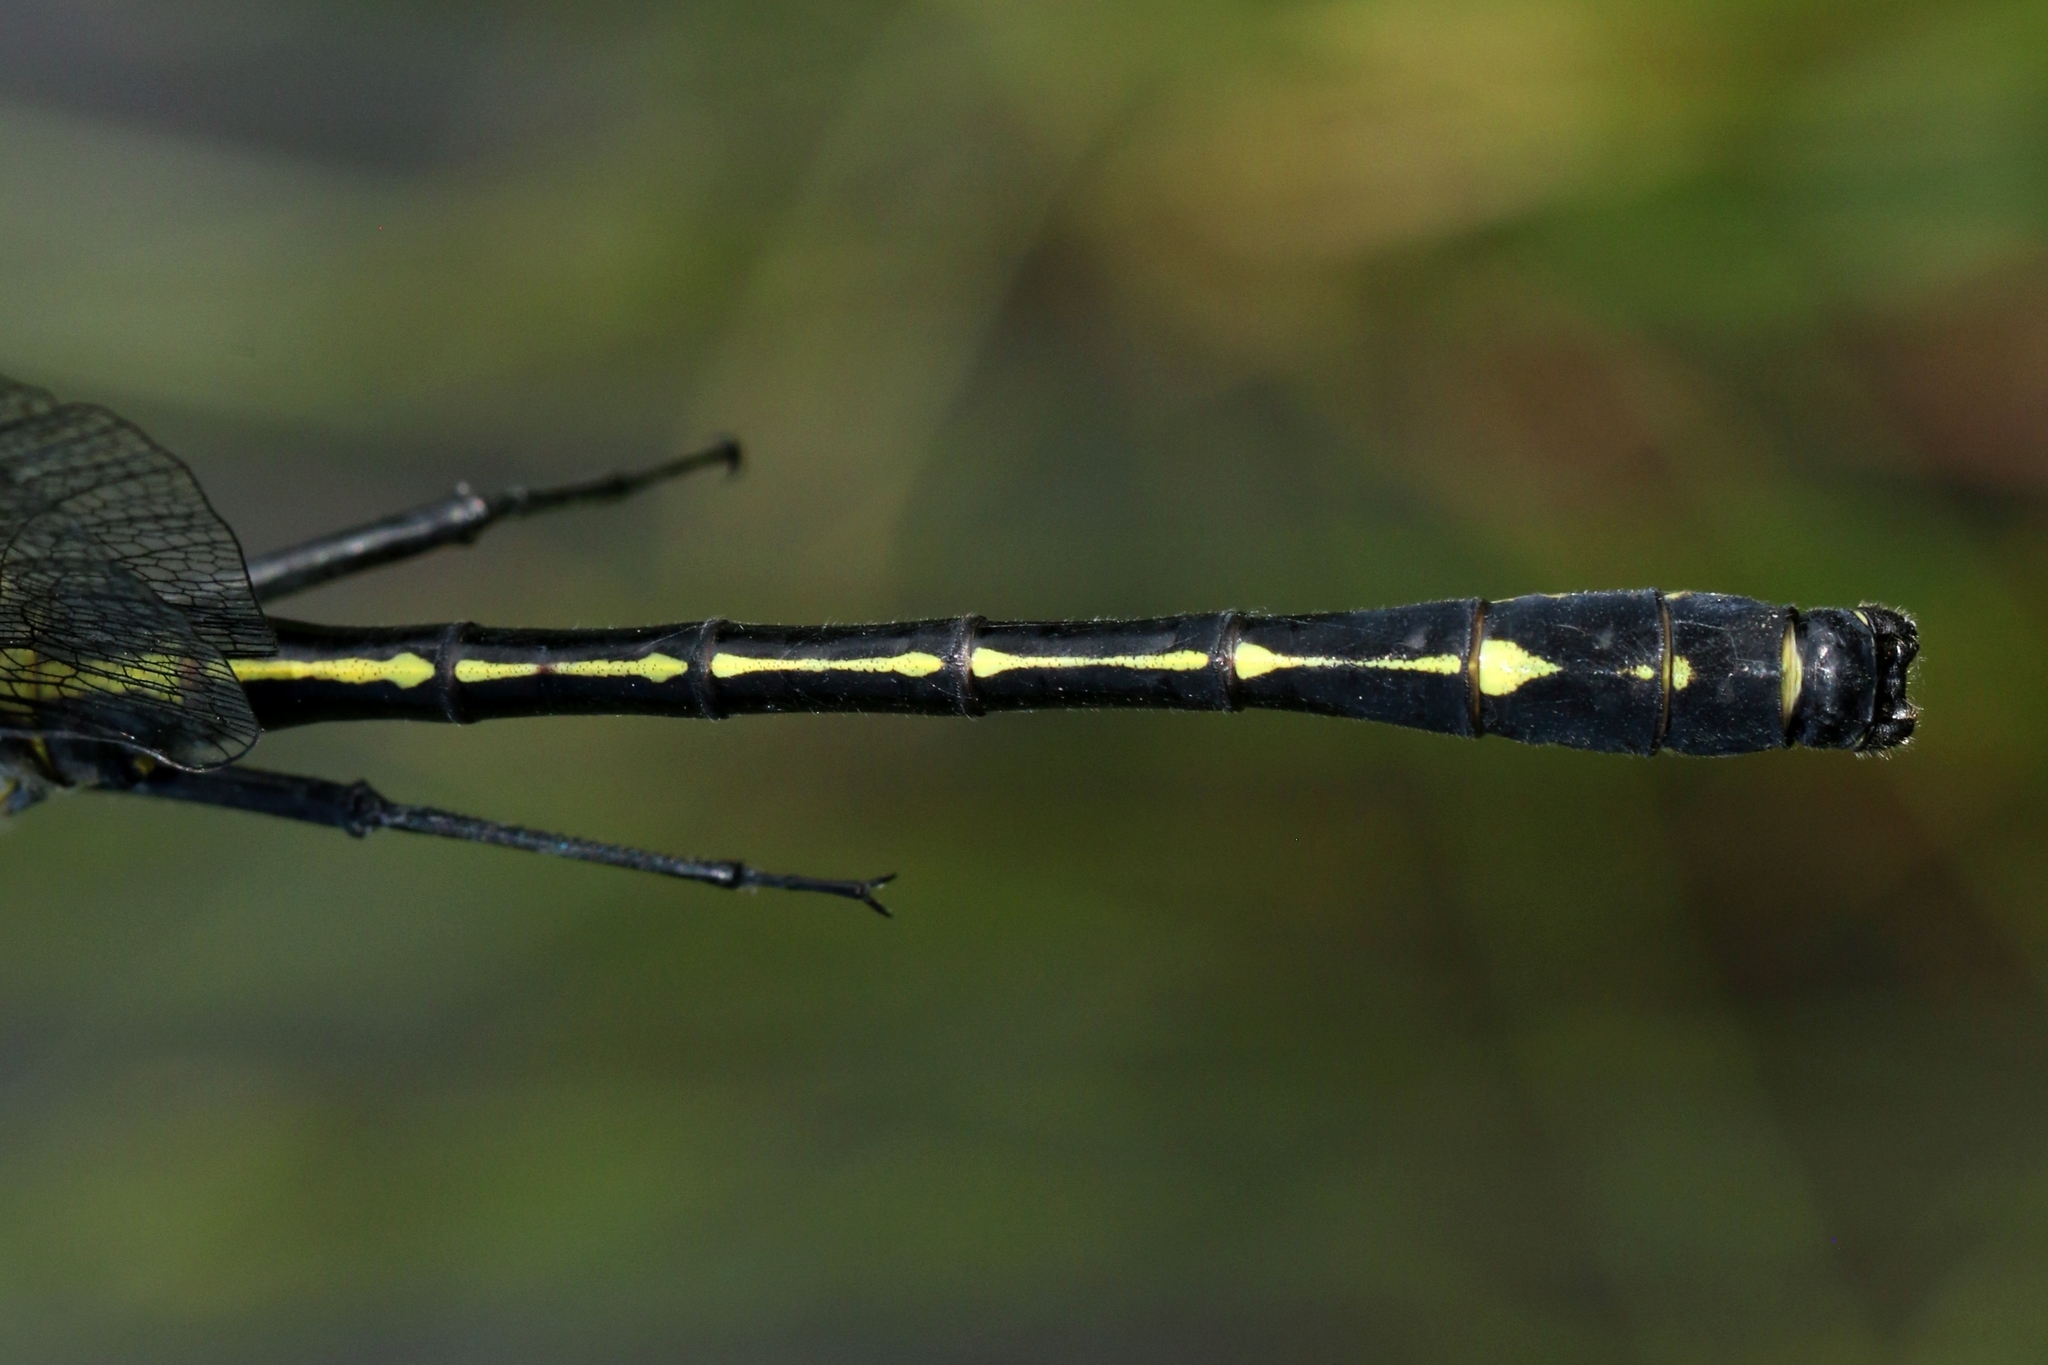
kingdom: Animalia
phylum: Arthropoda
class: Insecta
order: Odonata
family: Gomphidae
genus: Hagenius
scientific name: Hagenius brevistylus
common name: Dragonhunter
